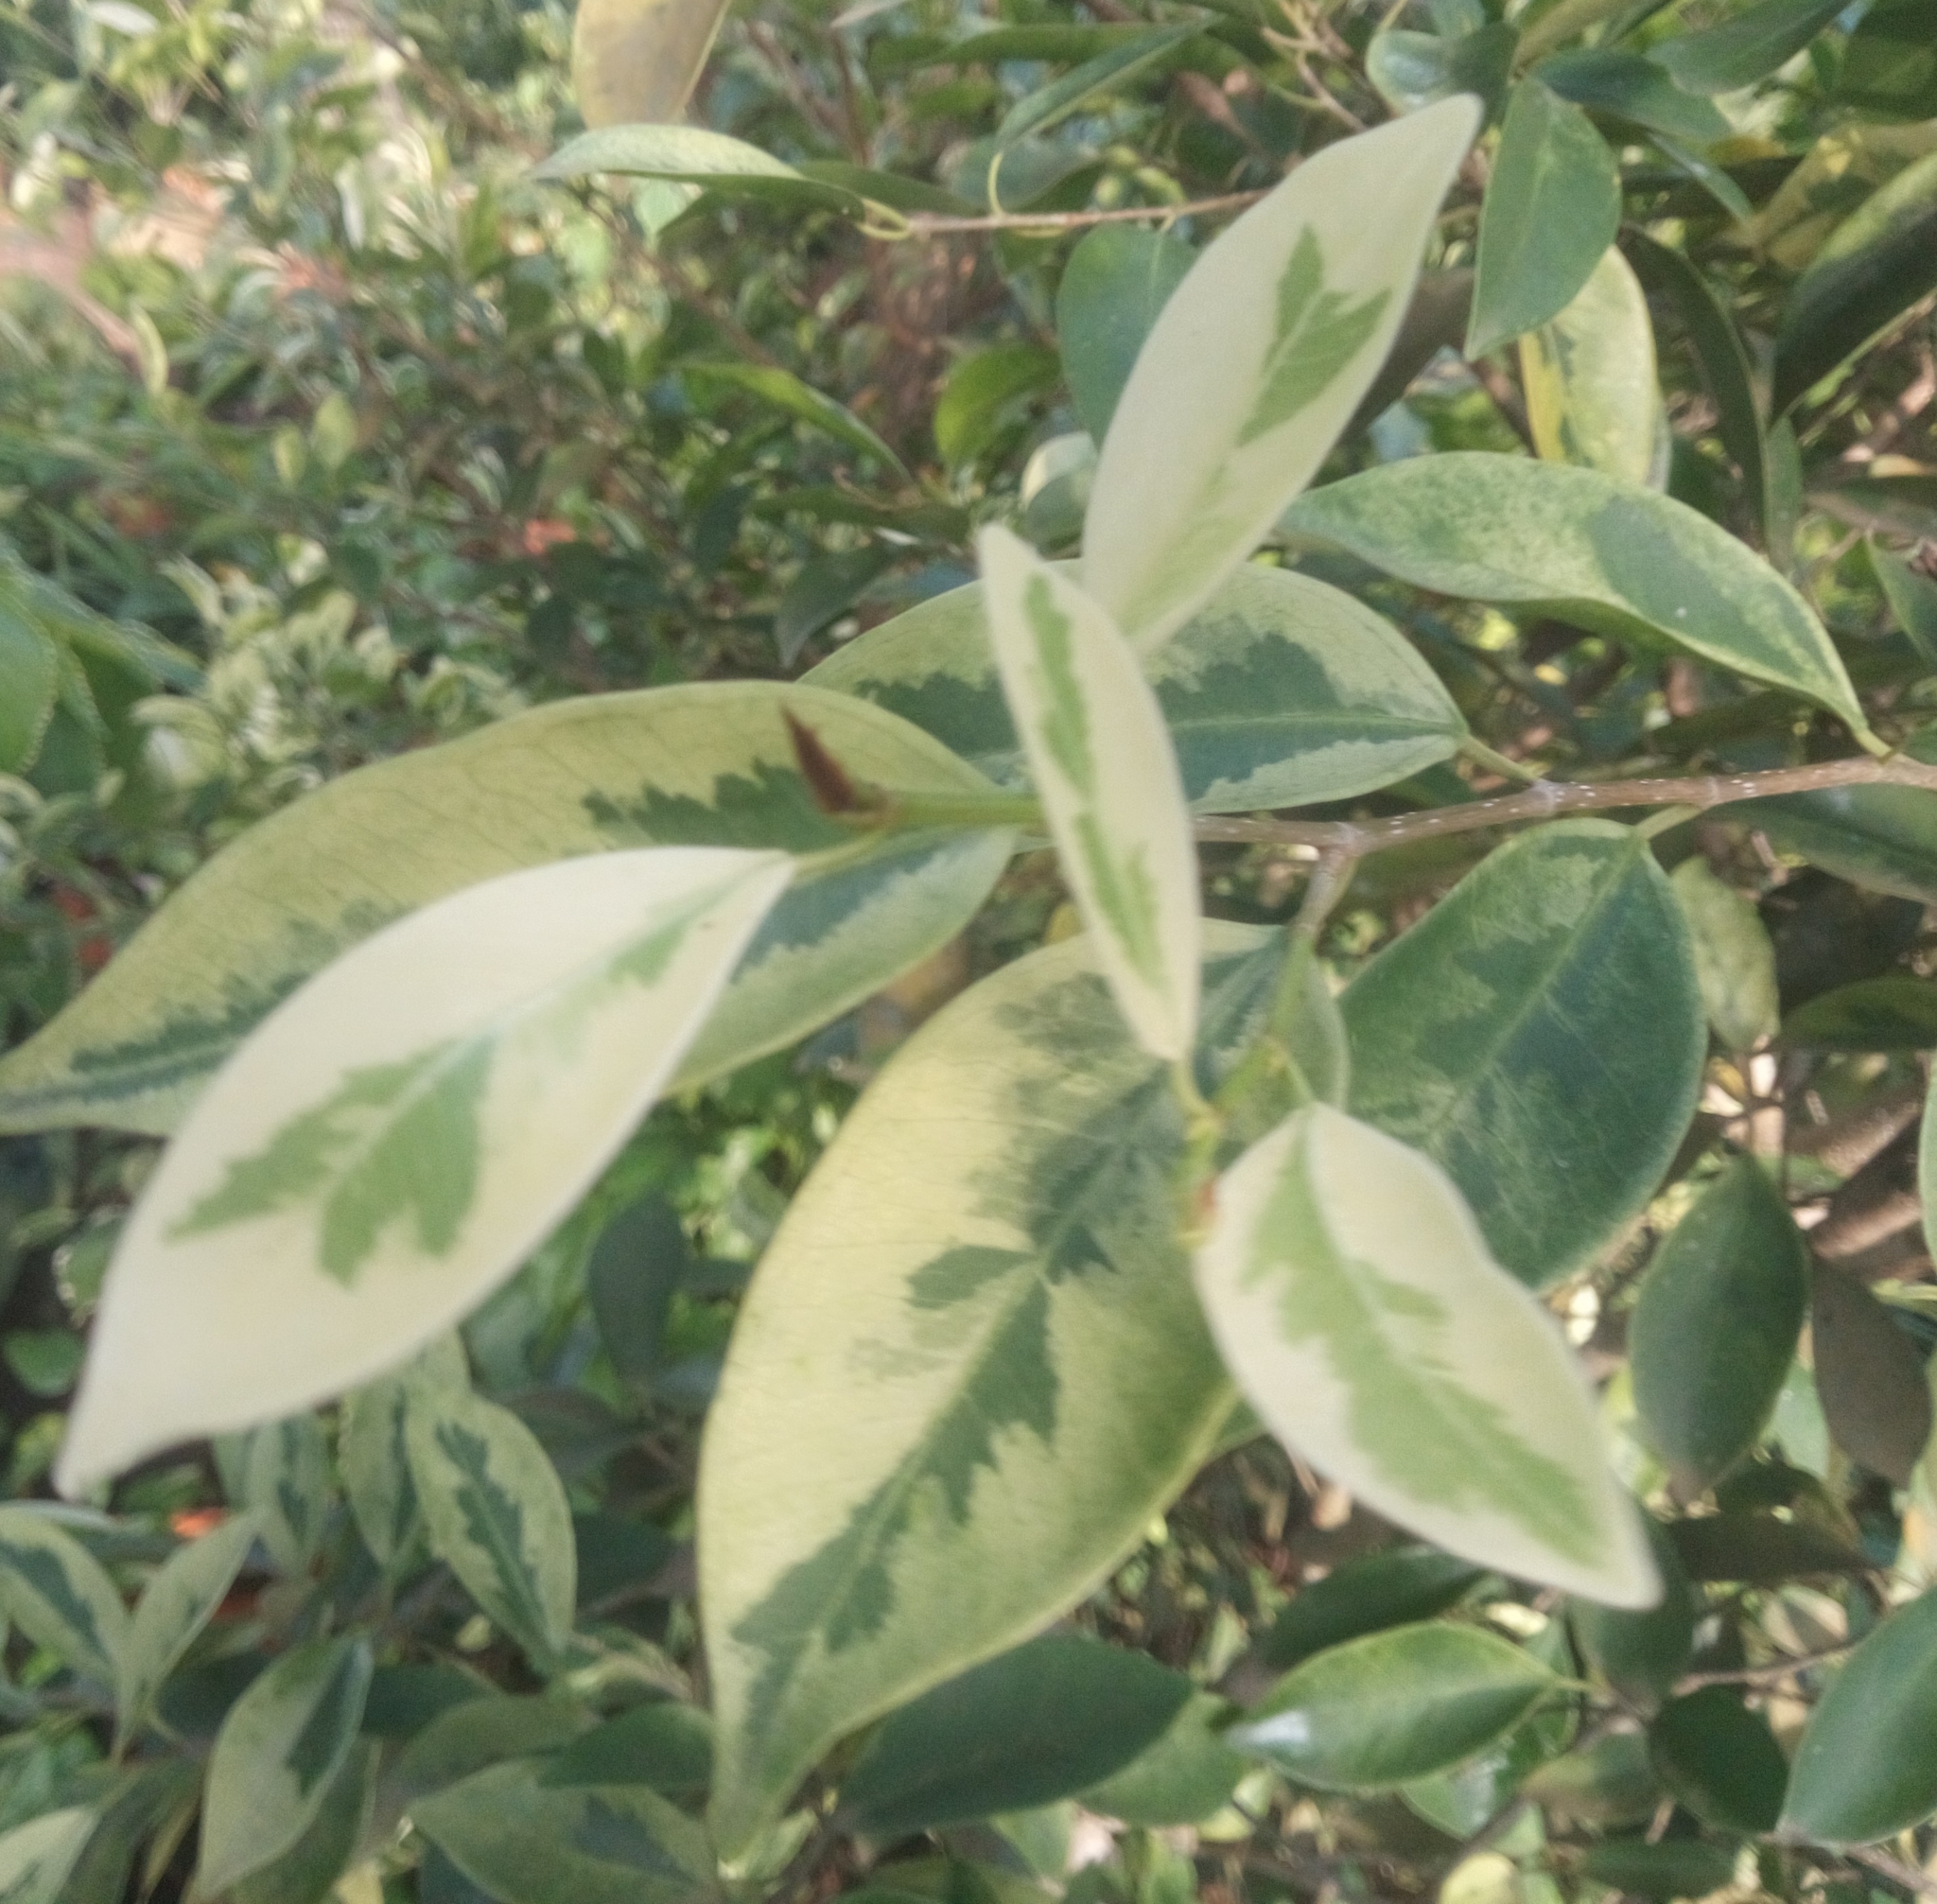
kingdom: Plantae
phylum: Tracheophyta
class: Magnoliopsida
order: Rosales
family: Moraceae
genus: Ficus
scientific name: Ficus benjamina
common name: Weeping fig
